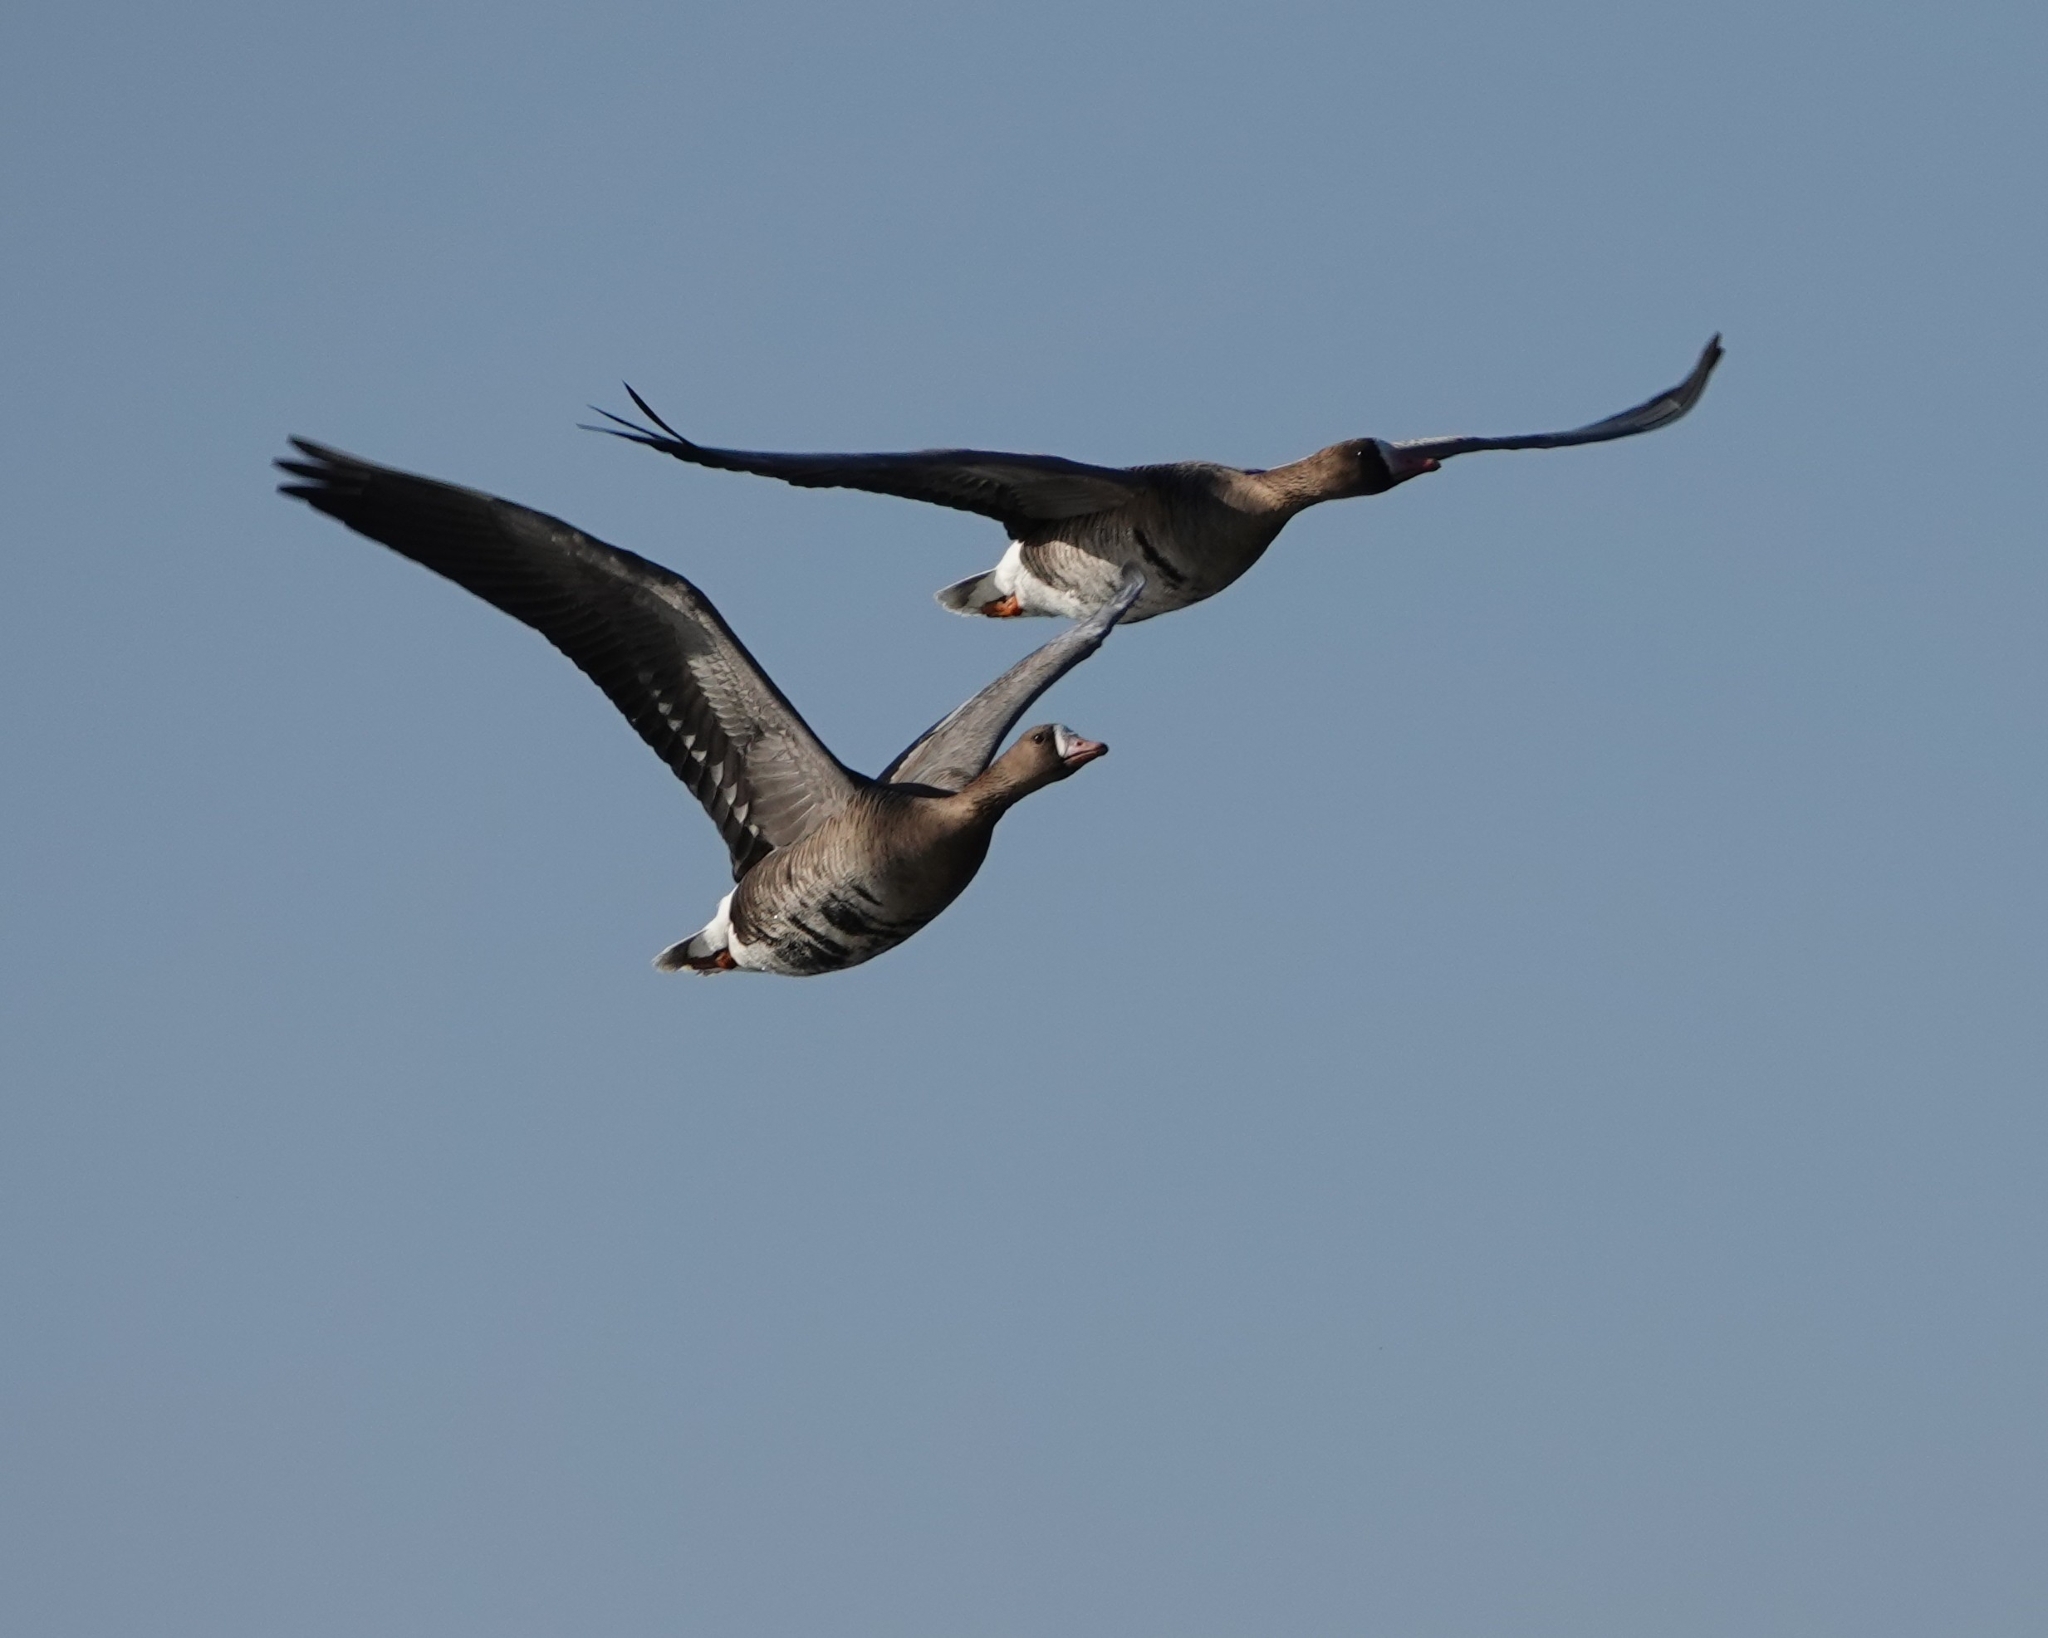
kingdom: Animalia
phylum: Chordata
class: Aves
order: Anseriformes
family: Anatidae
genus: Anser
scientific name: Anser albifrons
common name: Greater white-fronted goose
